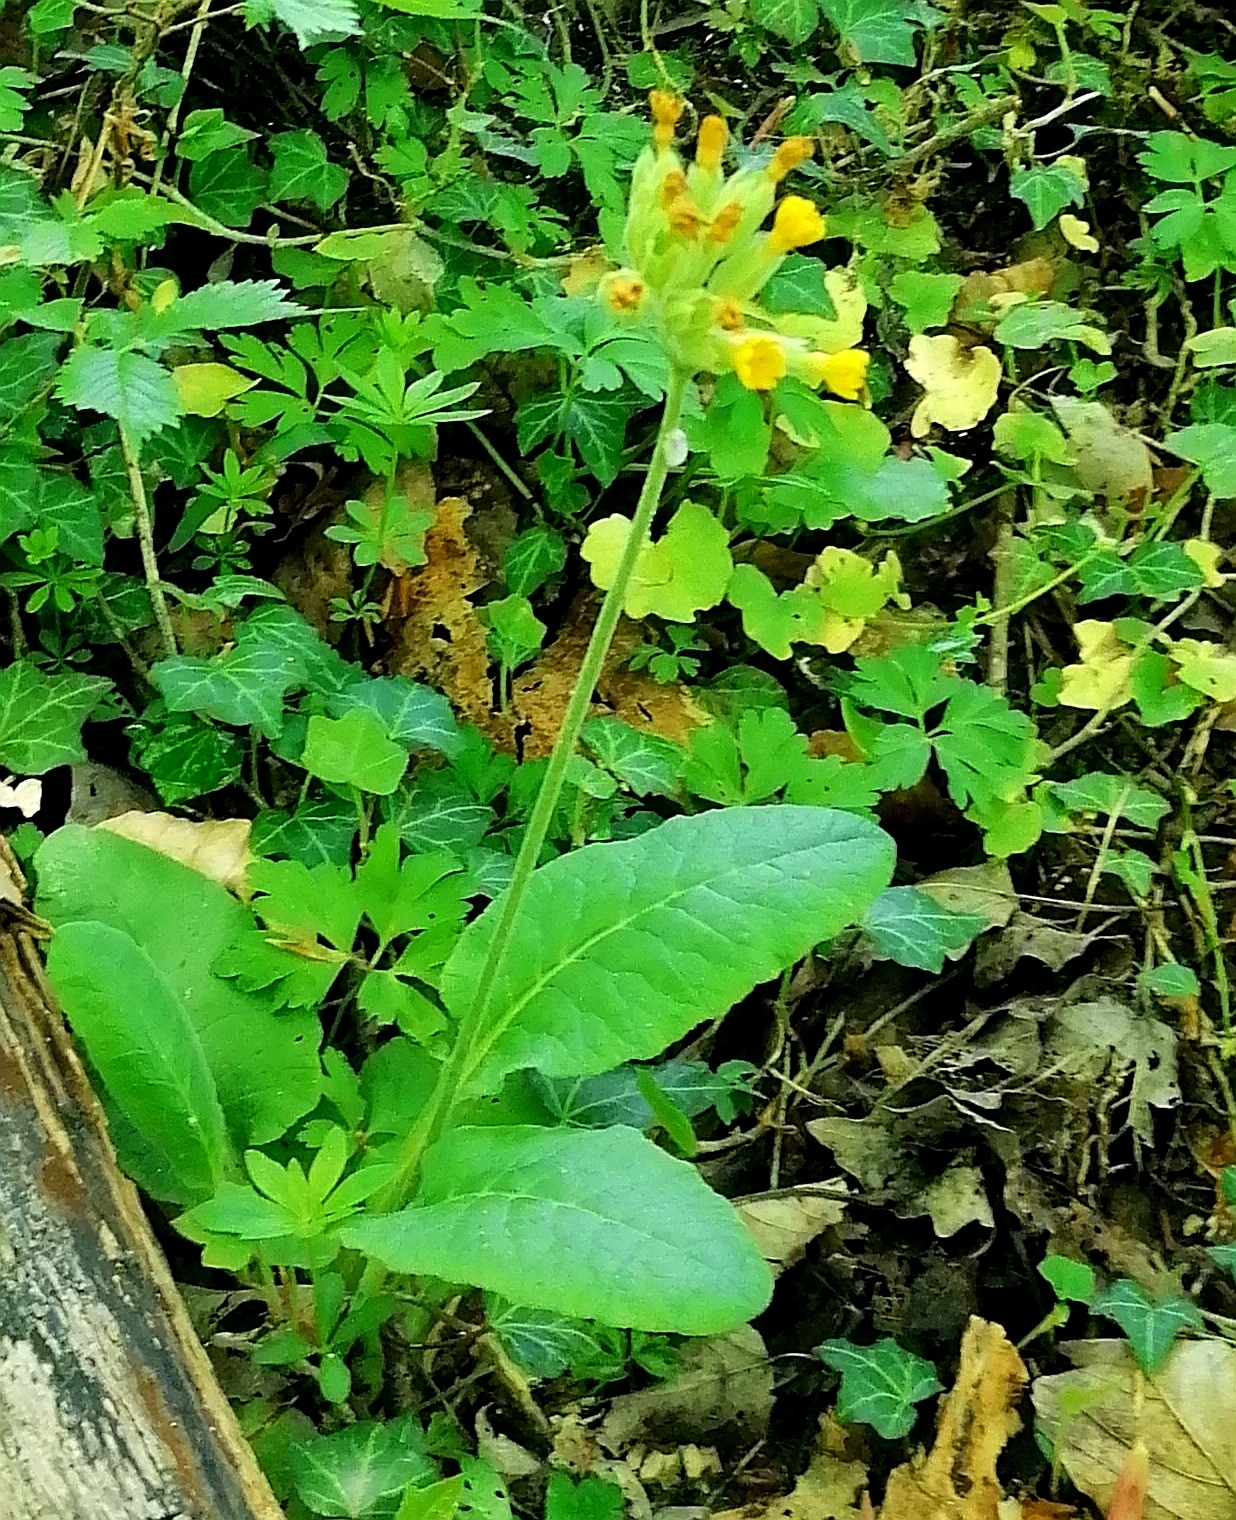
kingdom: Plantae
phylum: Tracheophyta
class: Magnoliopsida
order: Ericales
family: Primulaceae
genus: Primula
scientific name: Primula veris
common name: Cowslip
